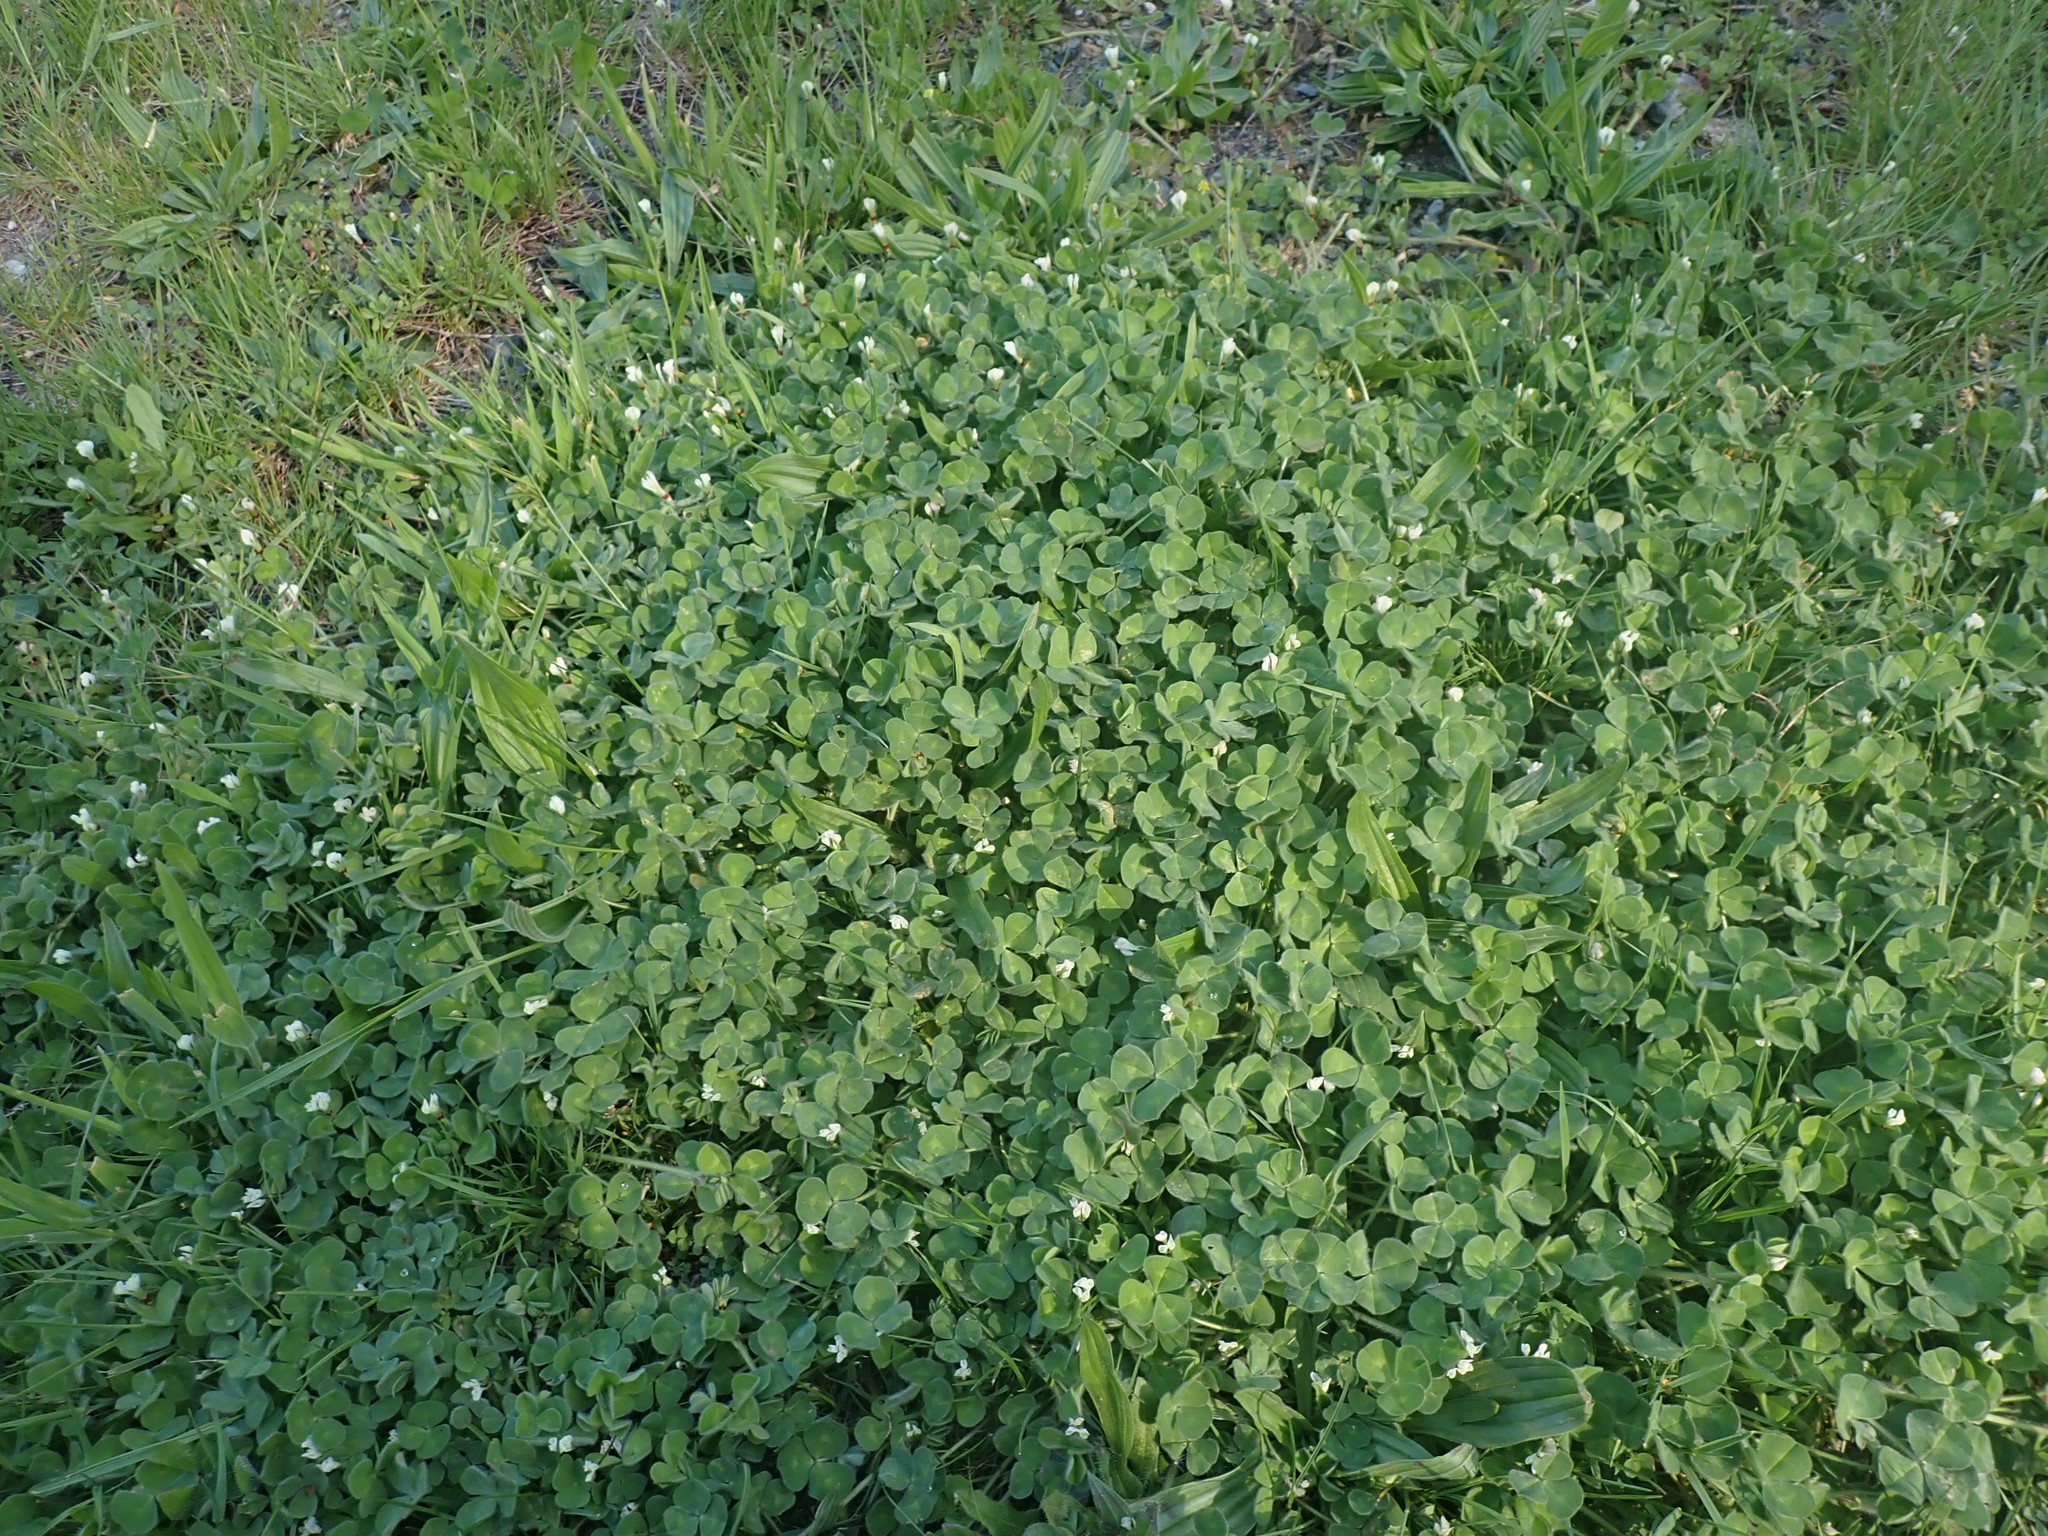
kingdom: Plantae
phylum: Tracheophyta
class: Magnoliopsida
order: Fabales
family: Fabaceae
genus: Trifolium
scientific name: Trifolium subterraneum
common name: Subterranean clover
